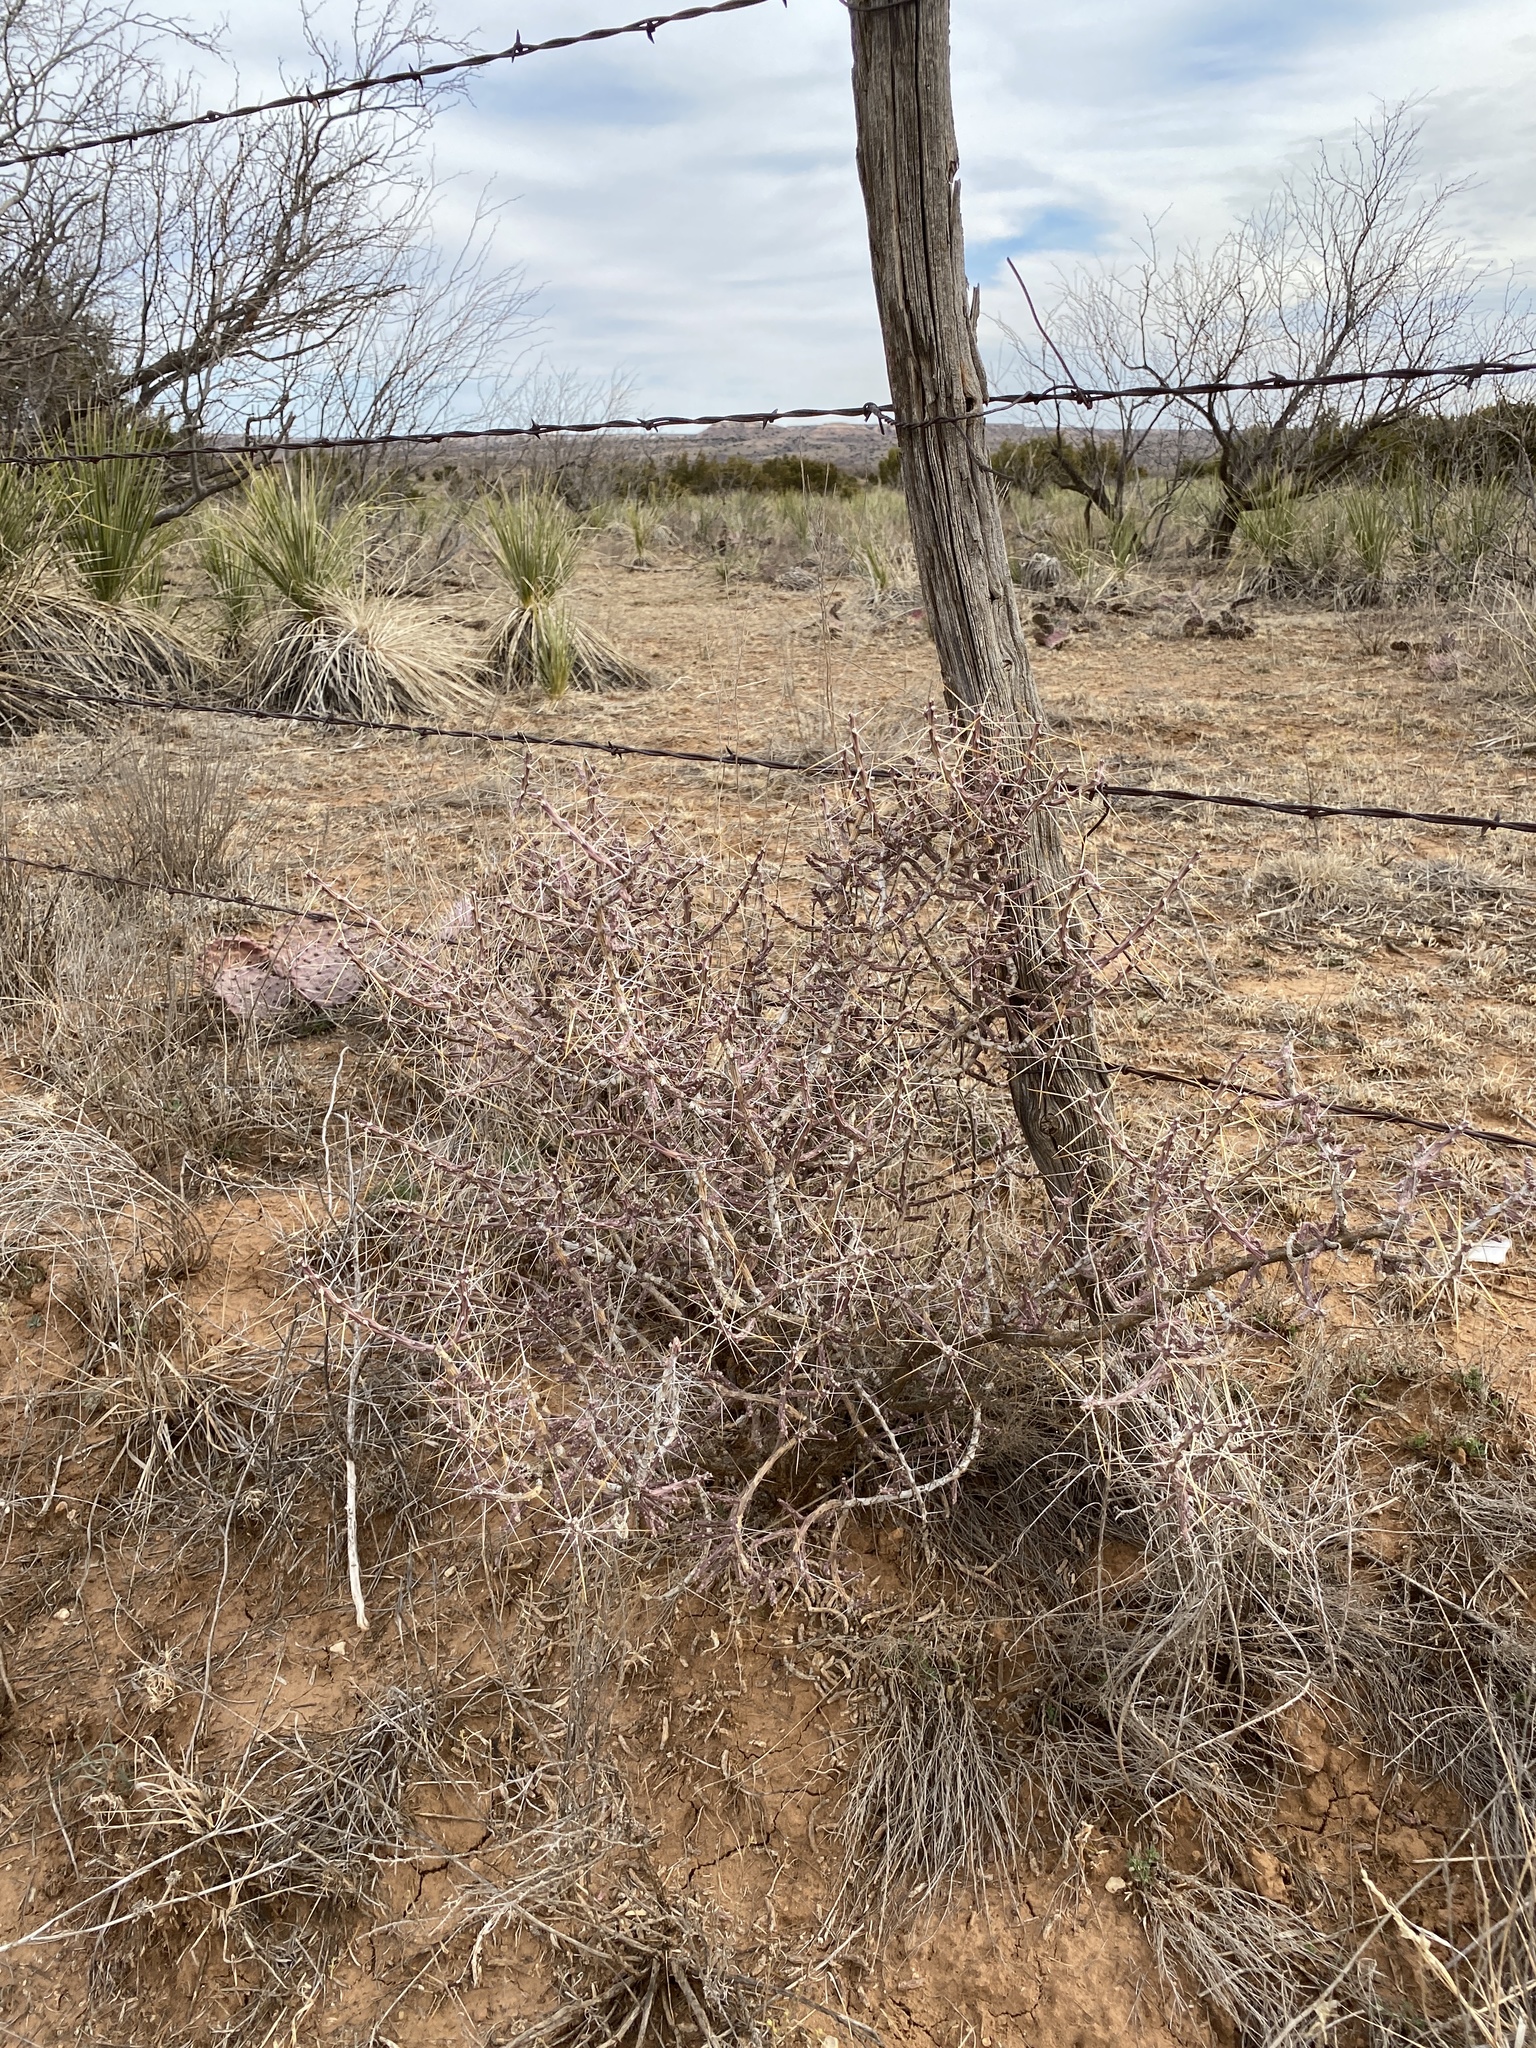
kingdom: Plantae
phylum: Tracheophyta
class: Magnoliopsida
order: Caryophyllales
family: Cactaceae
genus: Cylindropuntia
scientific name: Cylindropuntia leptocaulis
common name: Christmas cactus
